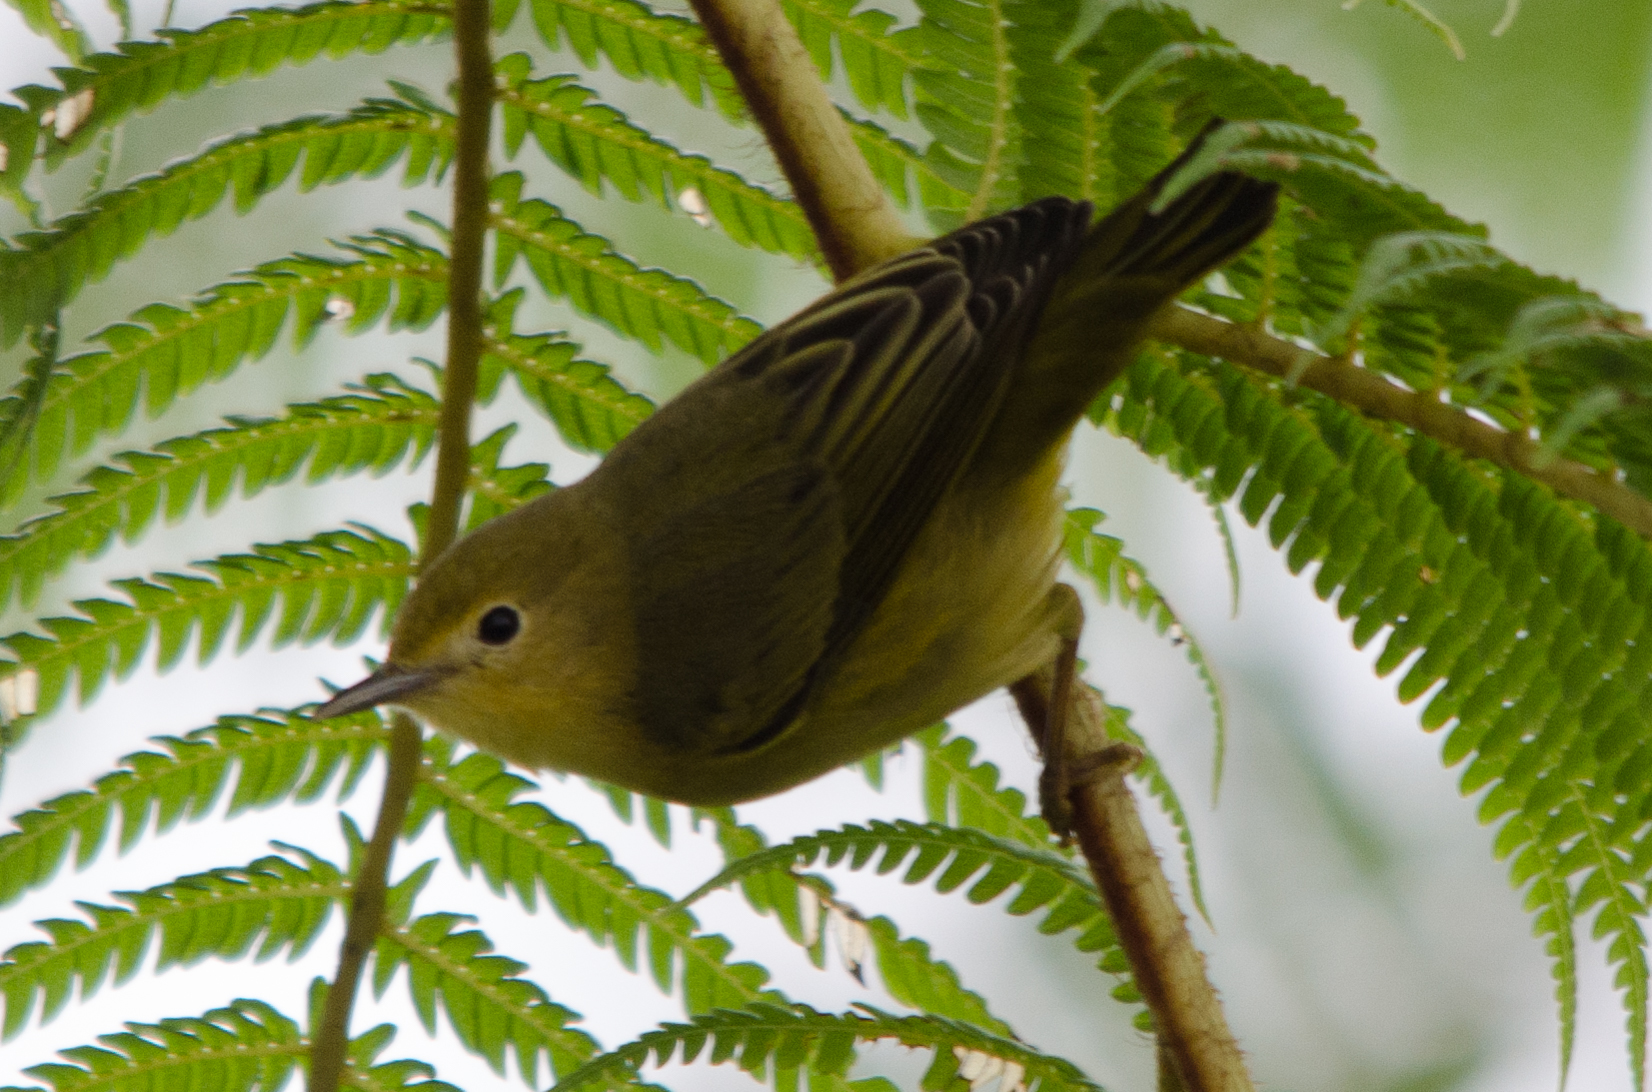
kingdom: Animalia
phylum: Chordata
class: Aves
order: Passeriformes
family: Parulidae
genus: Setophaga
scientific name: Setophaga petechia
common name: Yellow warbler
